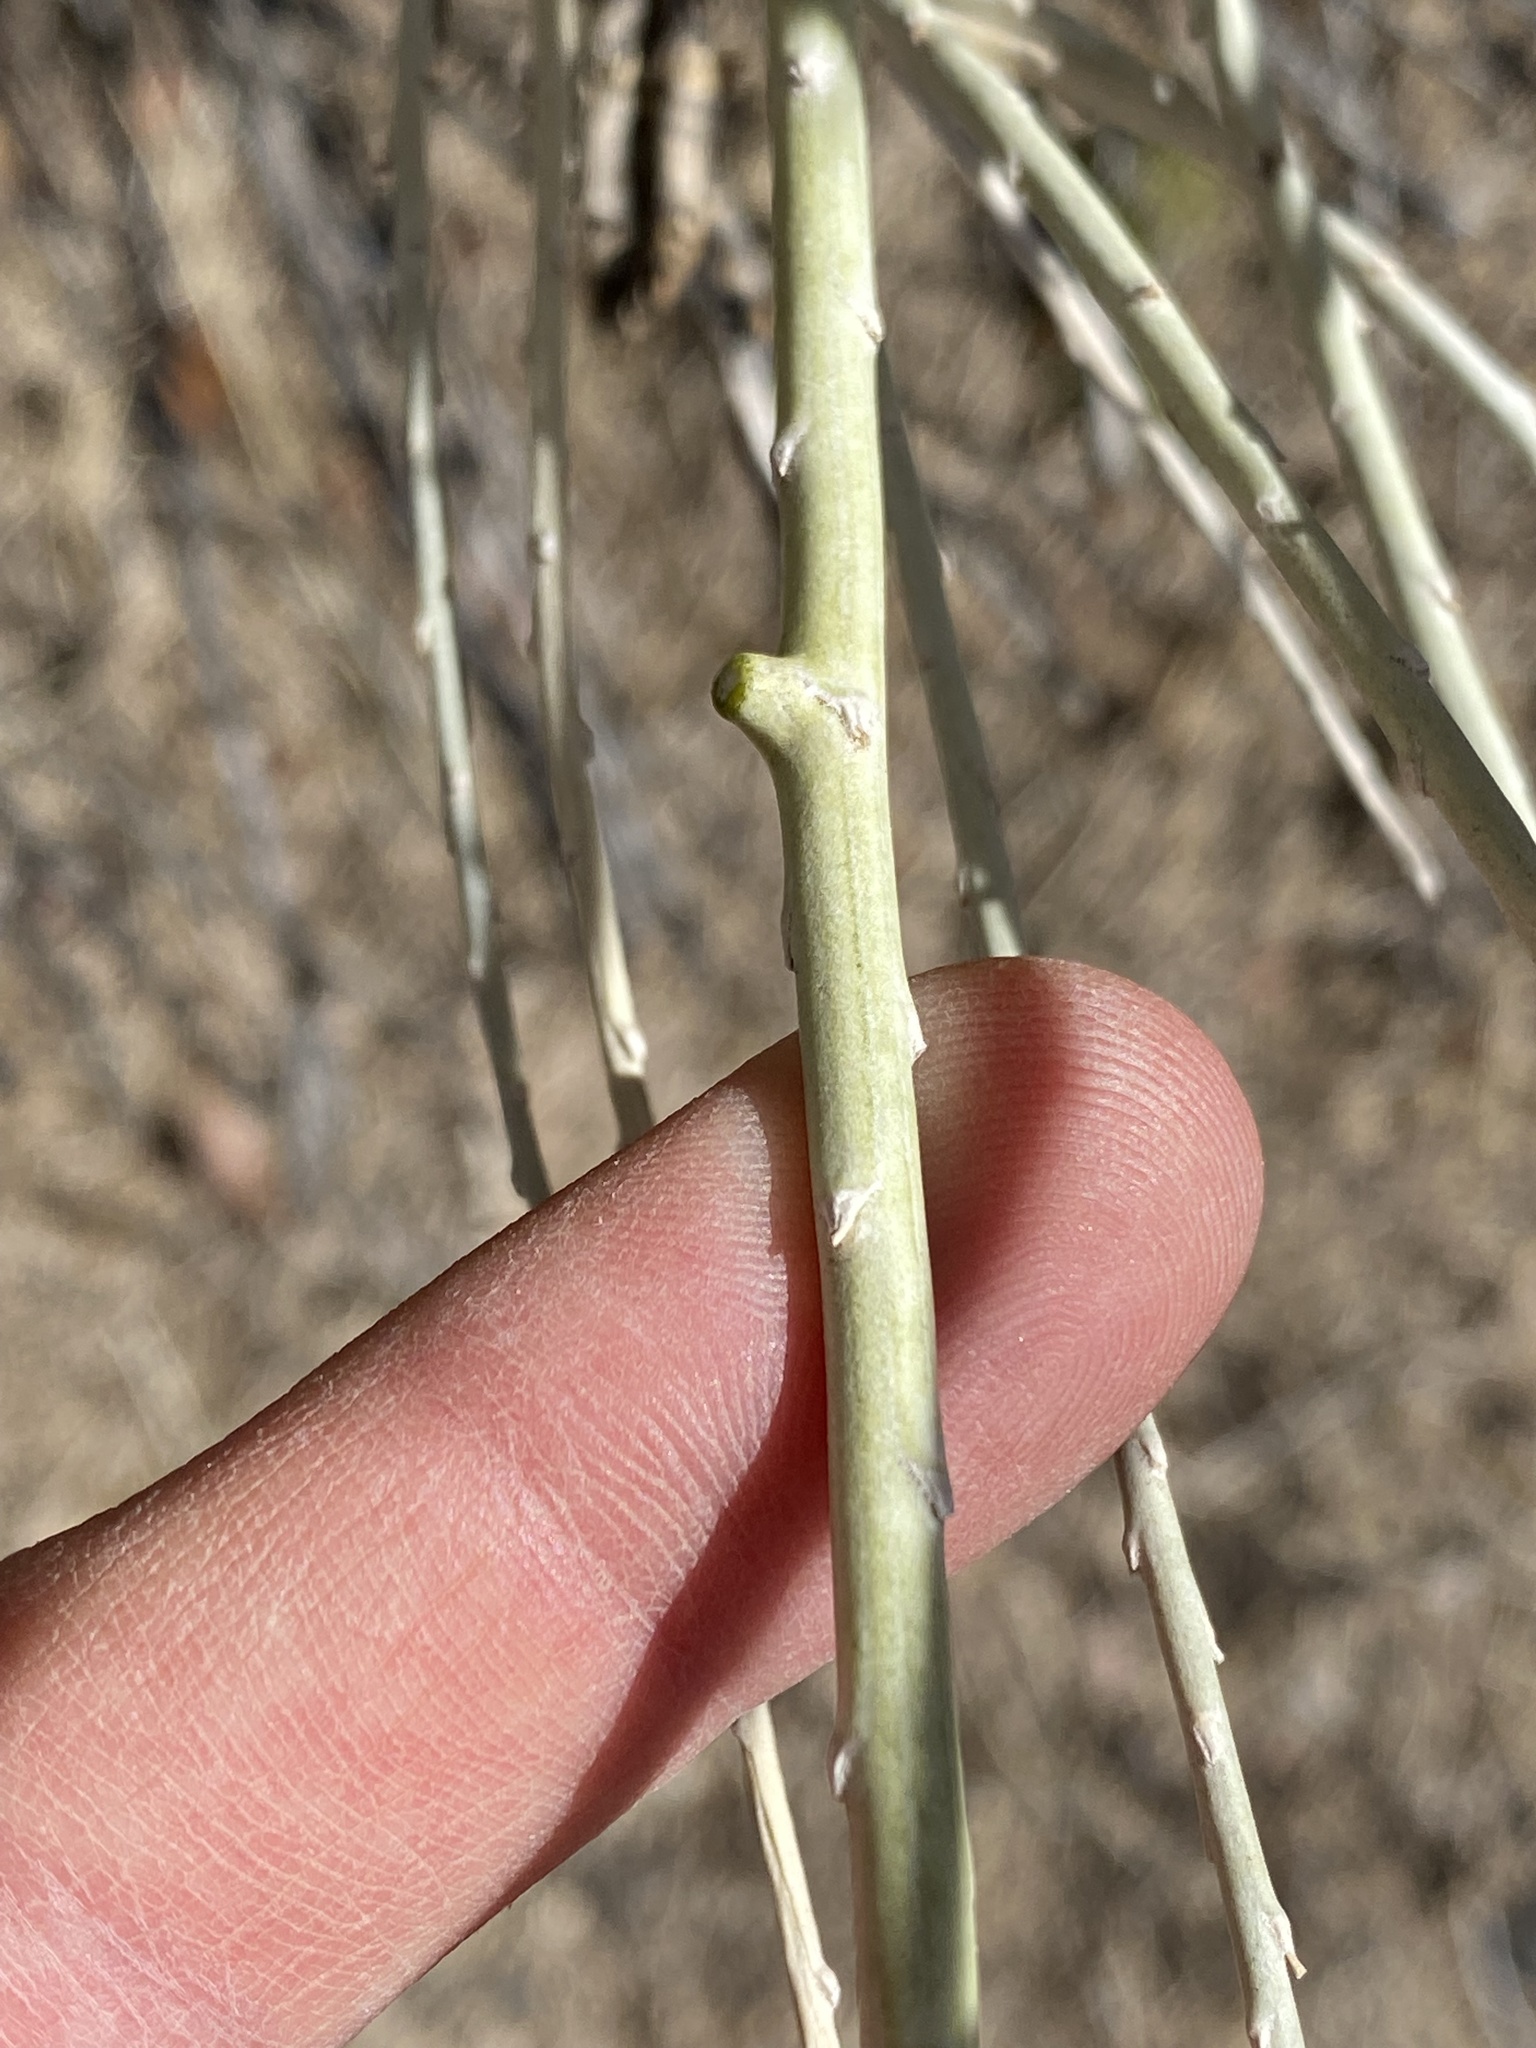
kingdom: Animalia
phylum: Arthropoda
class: Insecta
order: Diptera
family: Cecidomyiidae
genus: Rhopalomyia
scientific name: Rhopalomyia chrysothamni
